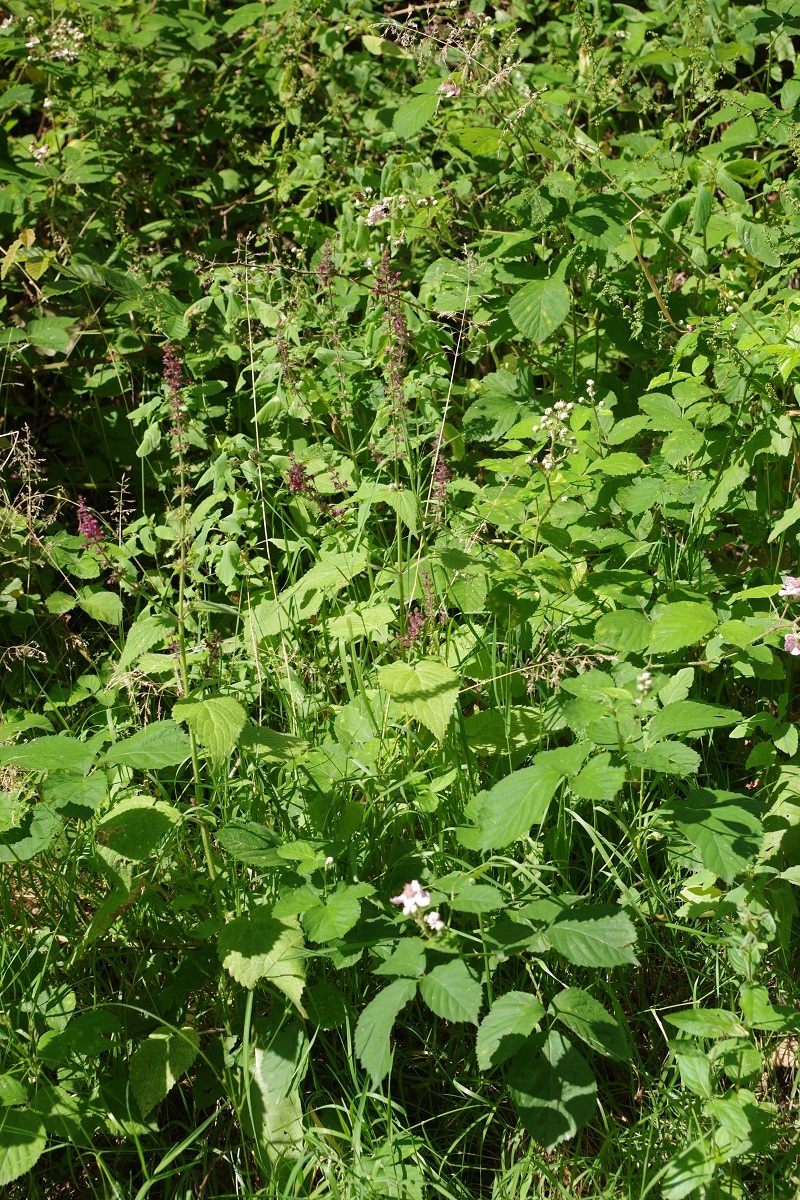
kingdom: Plantae
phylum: Tracheophyta
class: Magnoliopsida
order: Lamiales
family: Lamiaceae
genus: Stachys
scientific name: Stachys sylvatica
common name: Hedge woundwort
